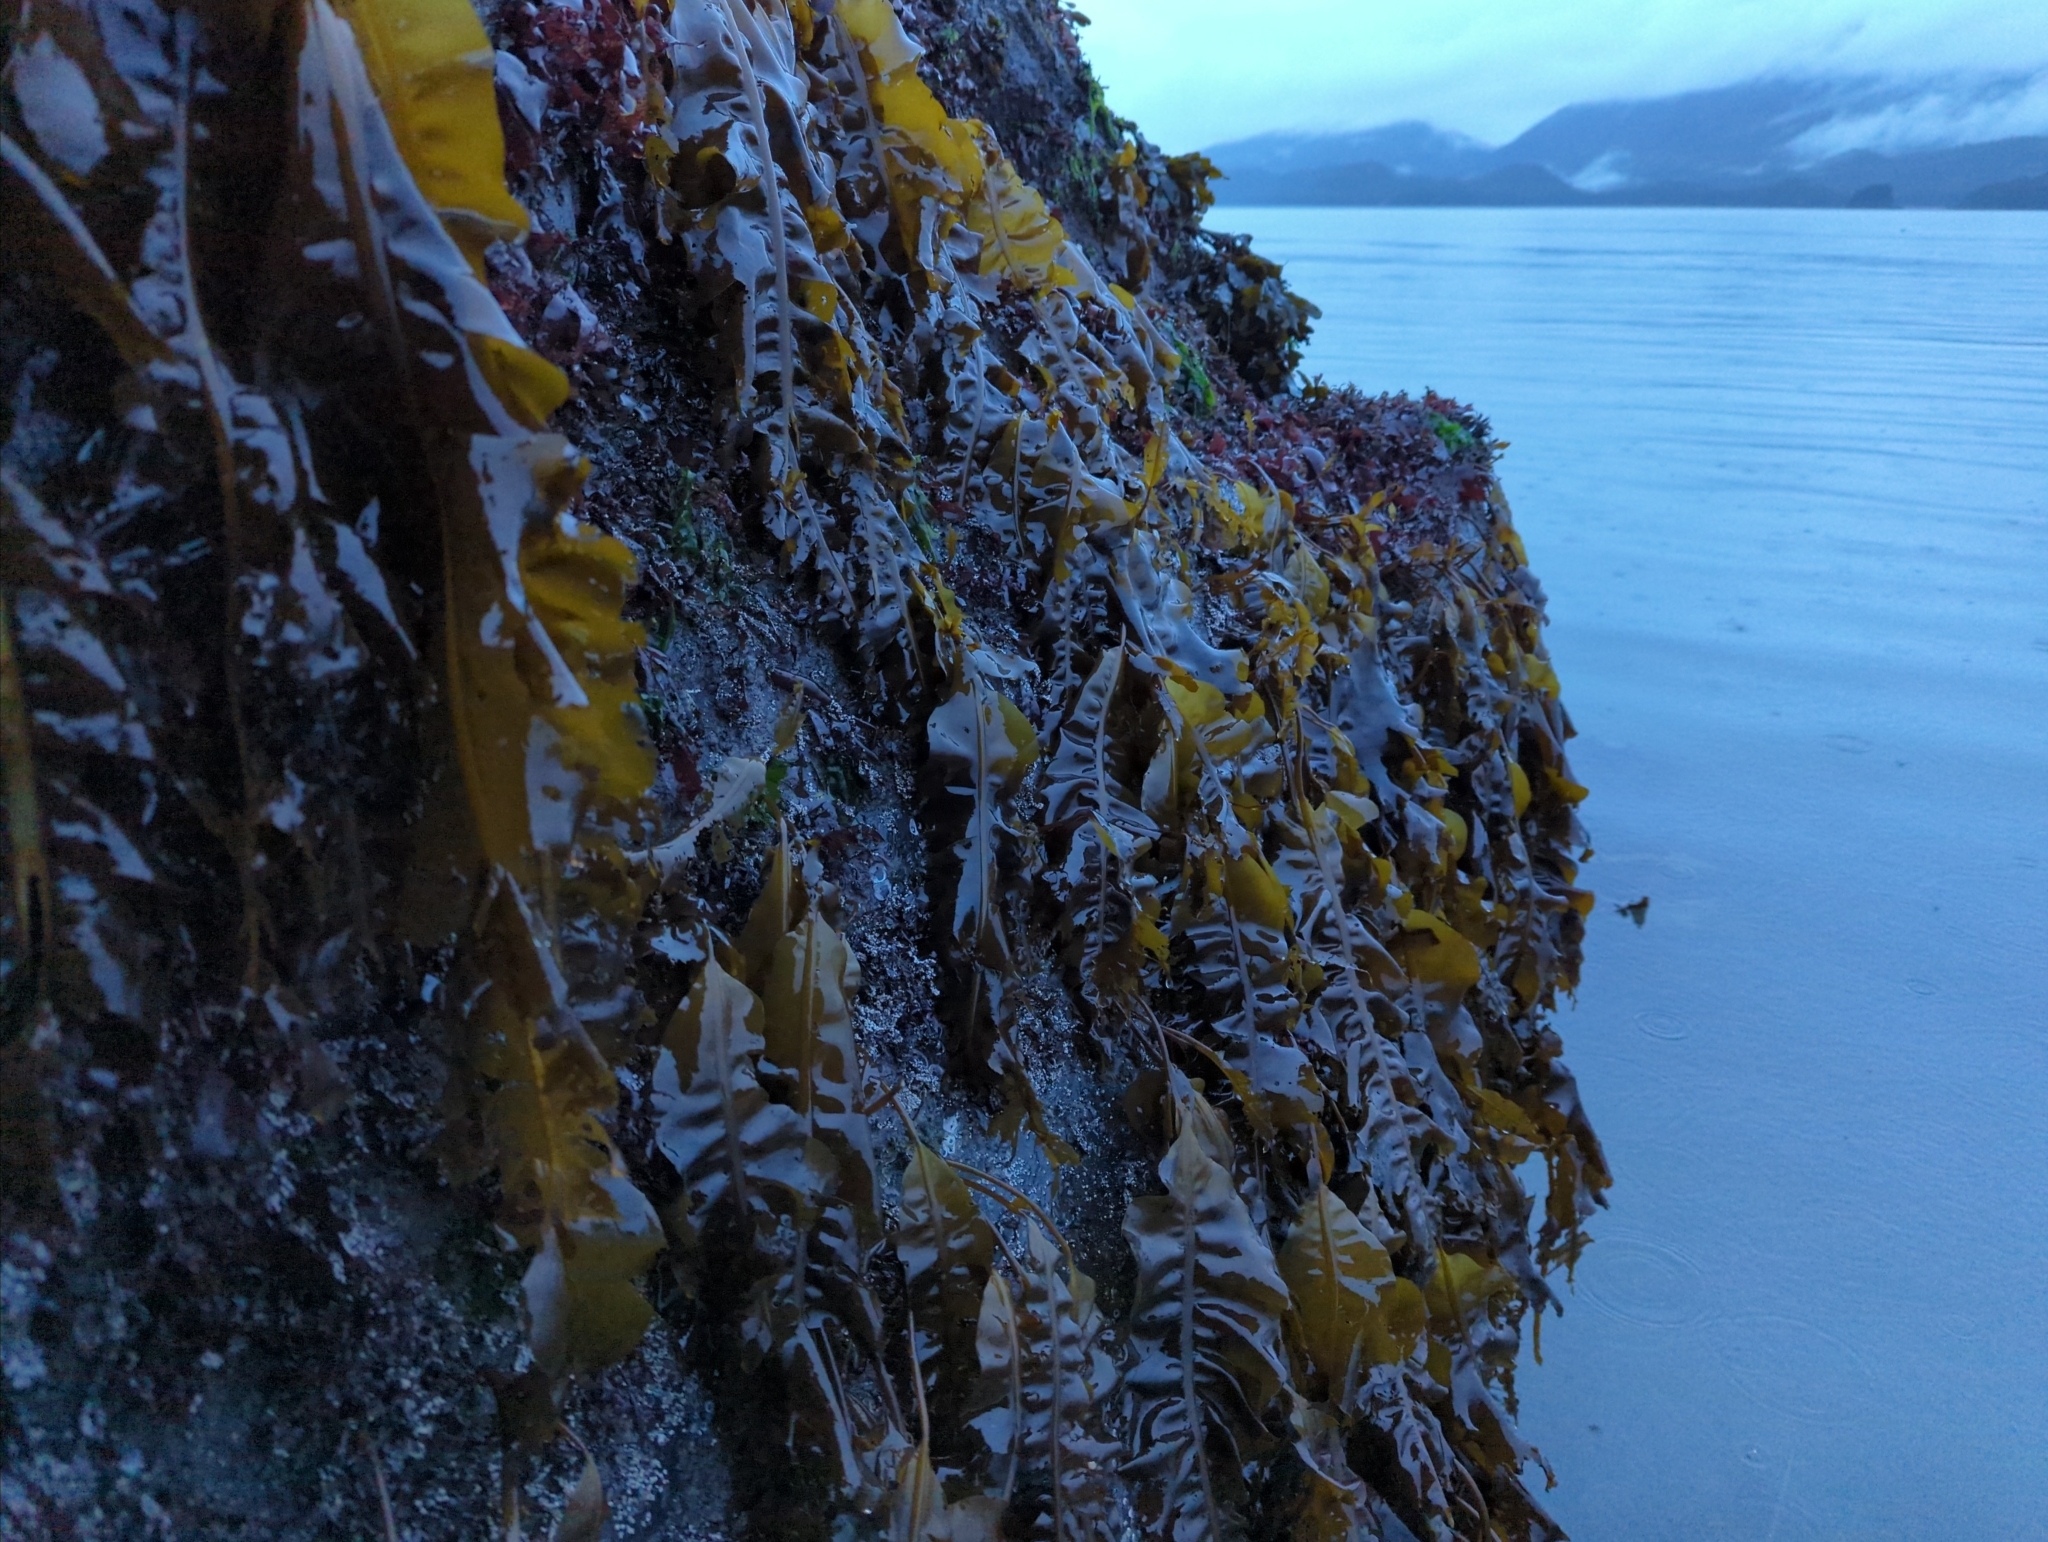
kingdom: Chromista
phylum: Ochrophyta
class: Phaeophyceae
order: Laminariales
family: Alariaceae
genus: Alaria
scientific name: Alaria marginata
